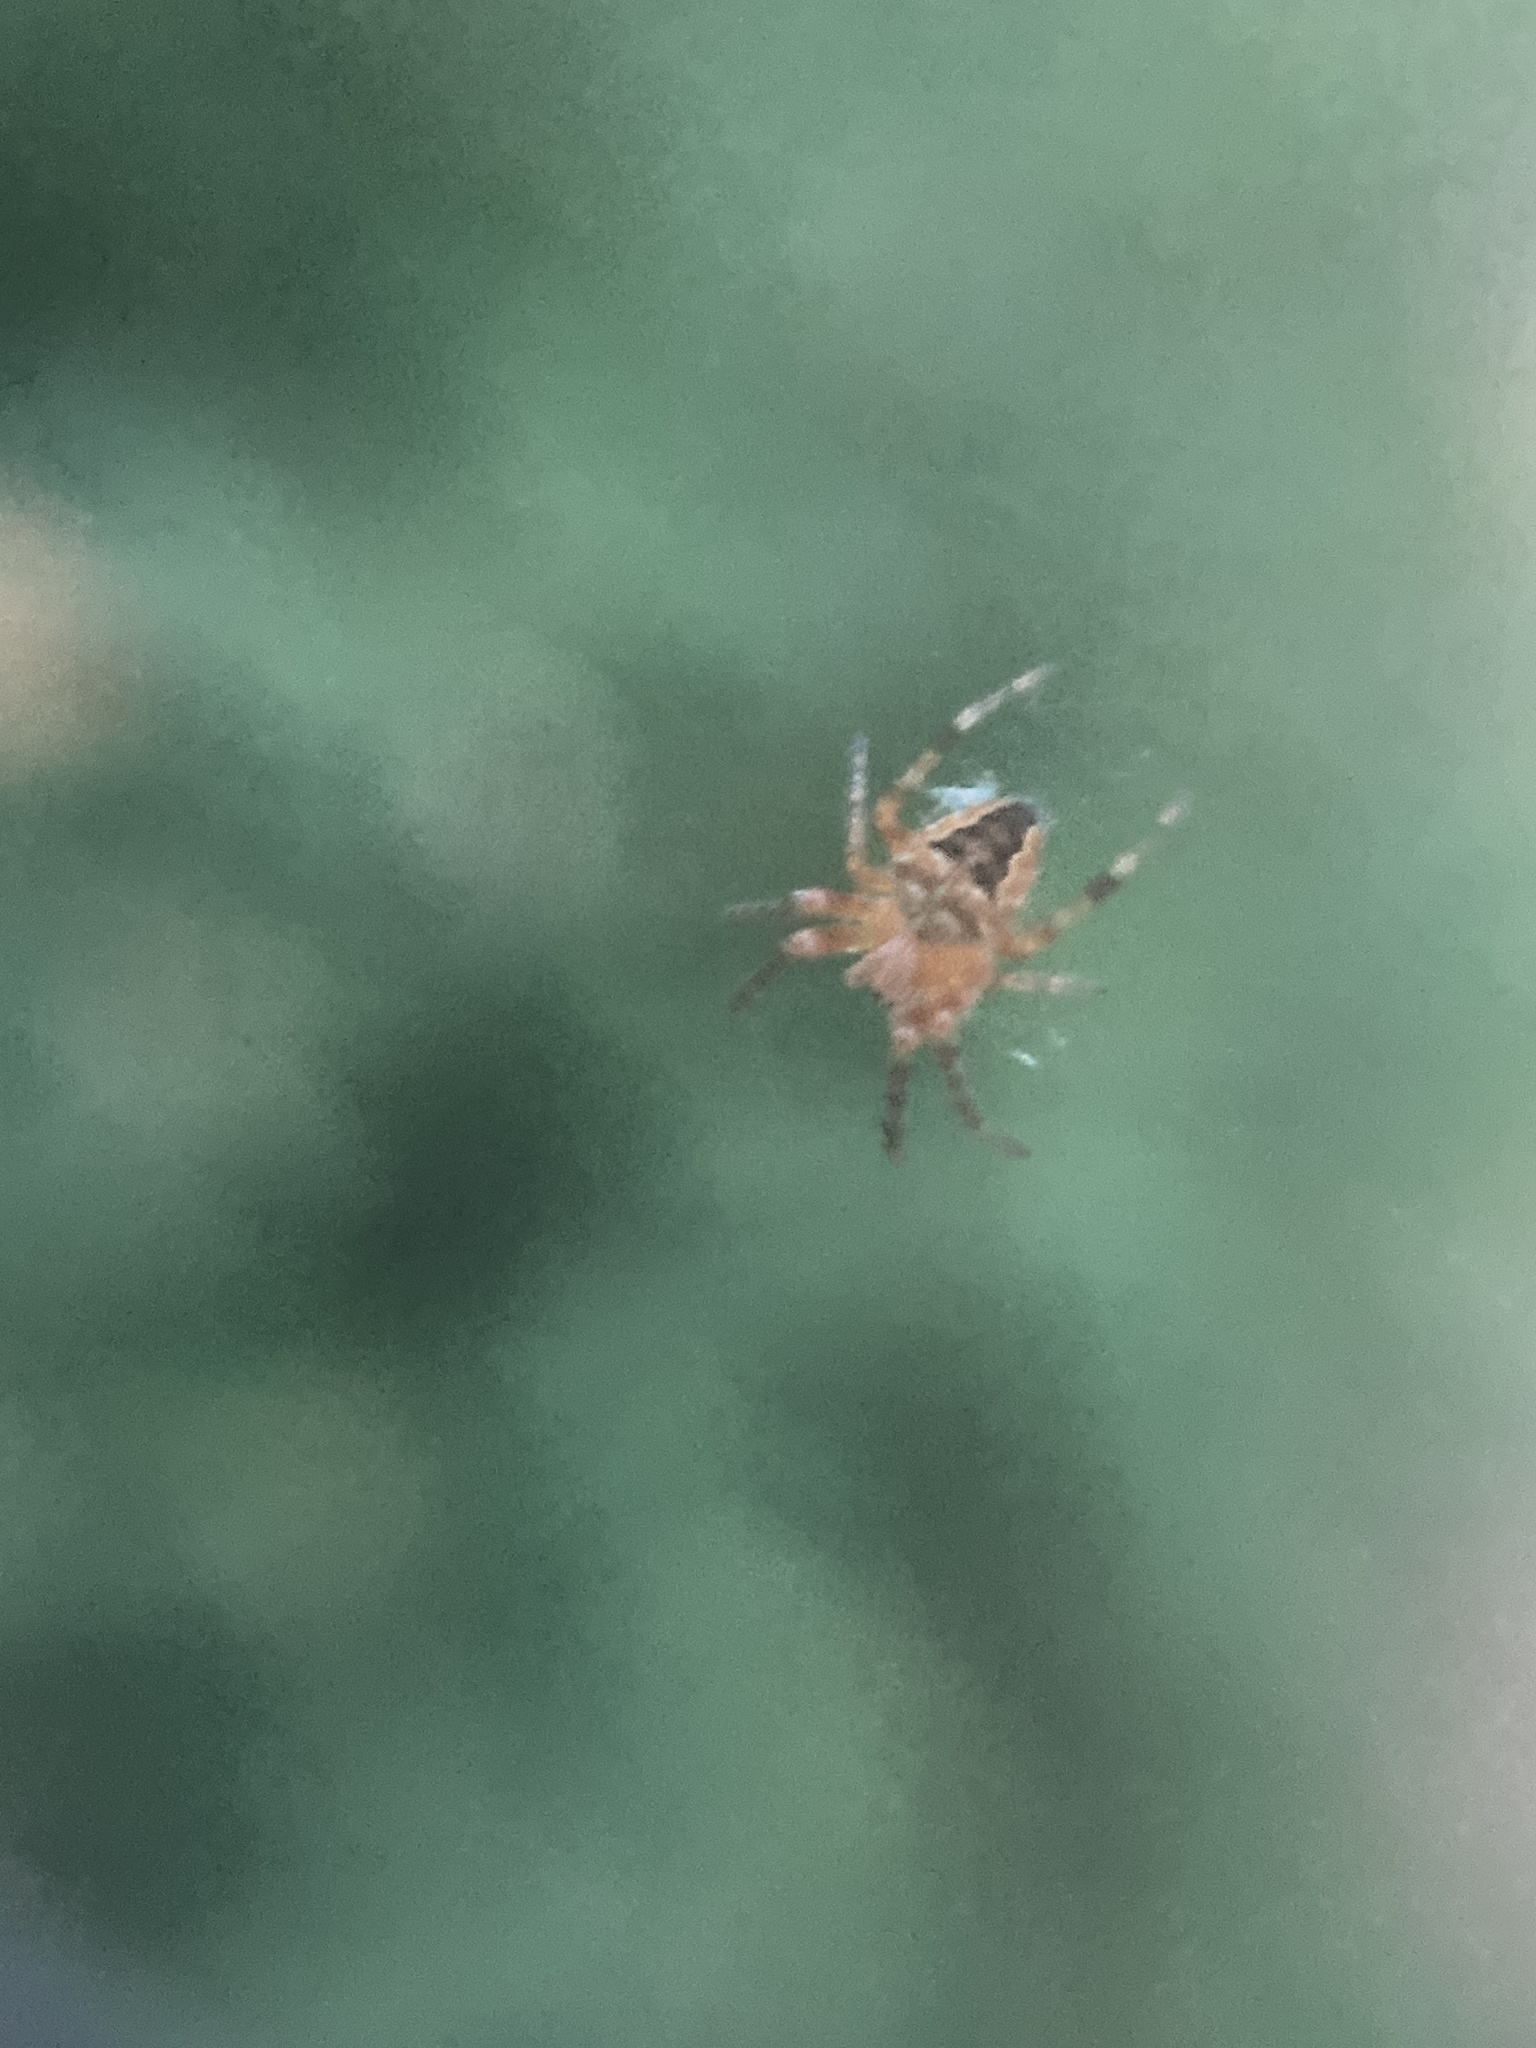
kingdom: Animalia
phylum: Arthropoda
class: Arachnida
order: Araneae
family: Araneidae
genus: Araneus
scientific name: Araneus diadematus
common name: Cross orbweaver
